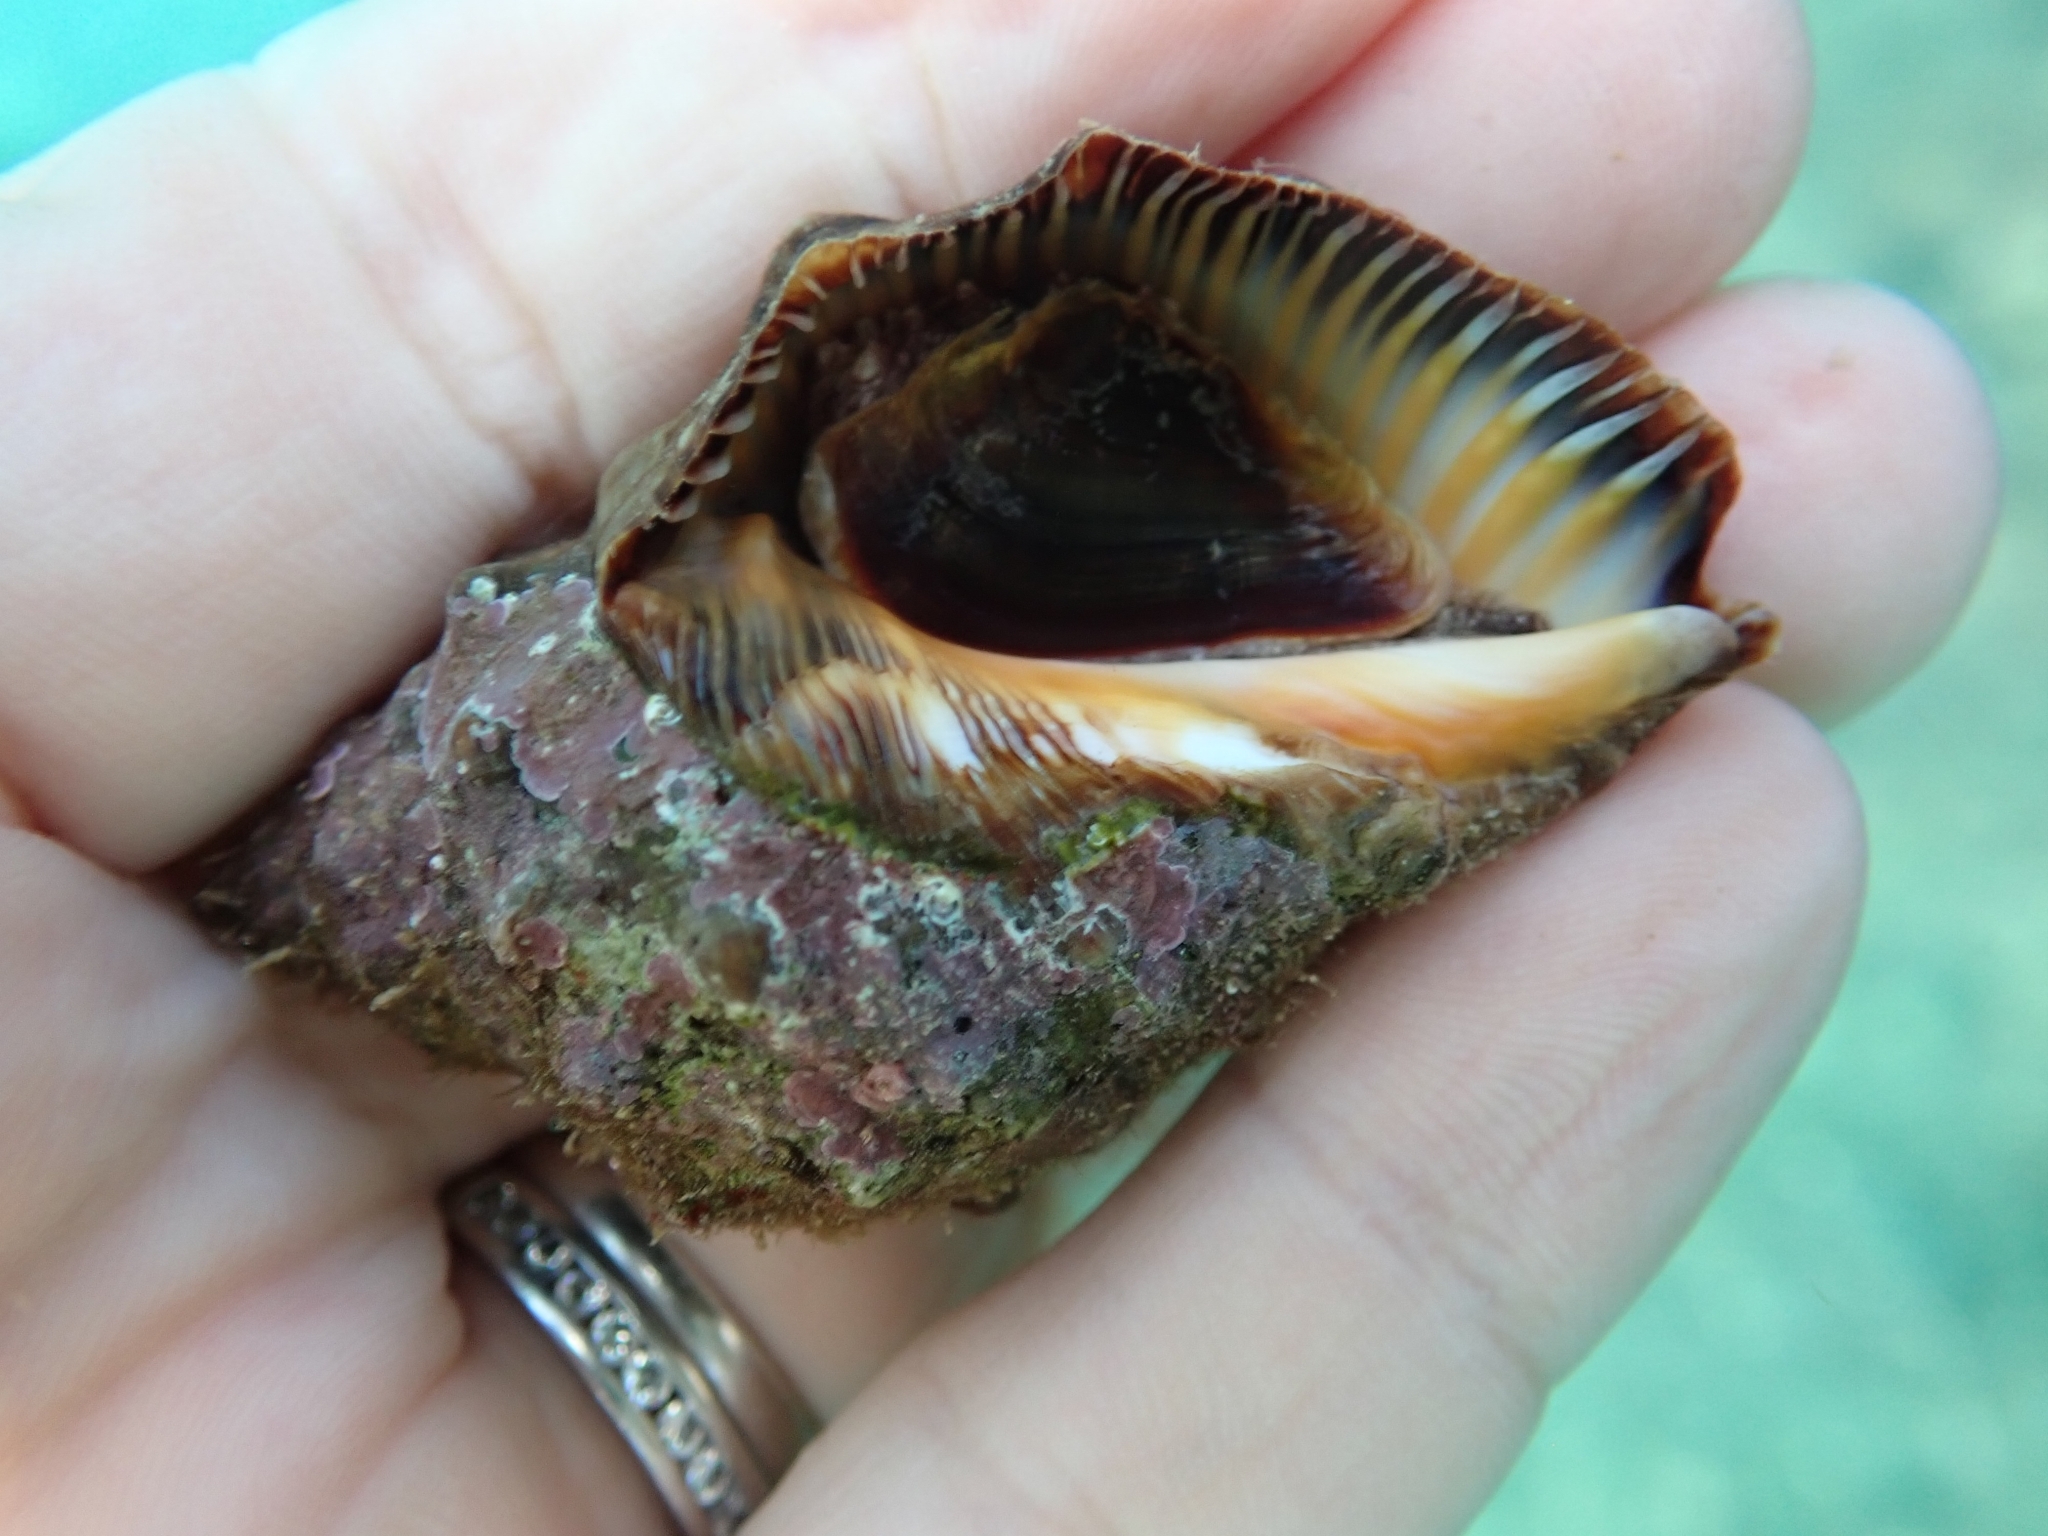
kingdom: Animalia
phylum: Mollusca
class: Gastropoda
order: Neogastropoda
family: Muricidae
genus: Stramonita
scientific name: Stramonita haemastoma
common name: Florida dog winkle
